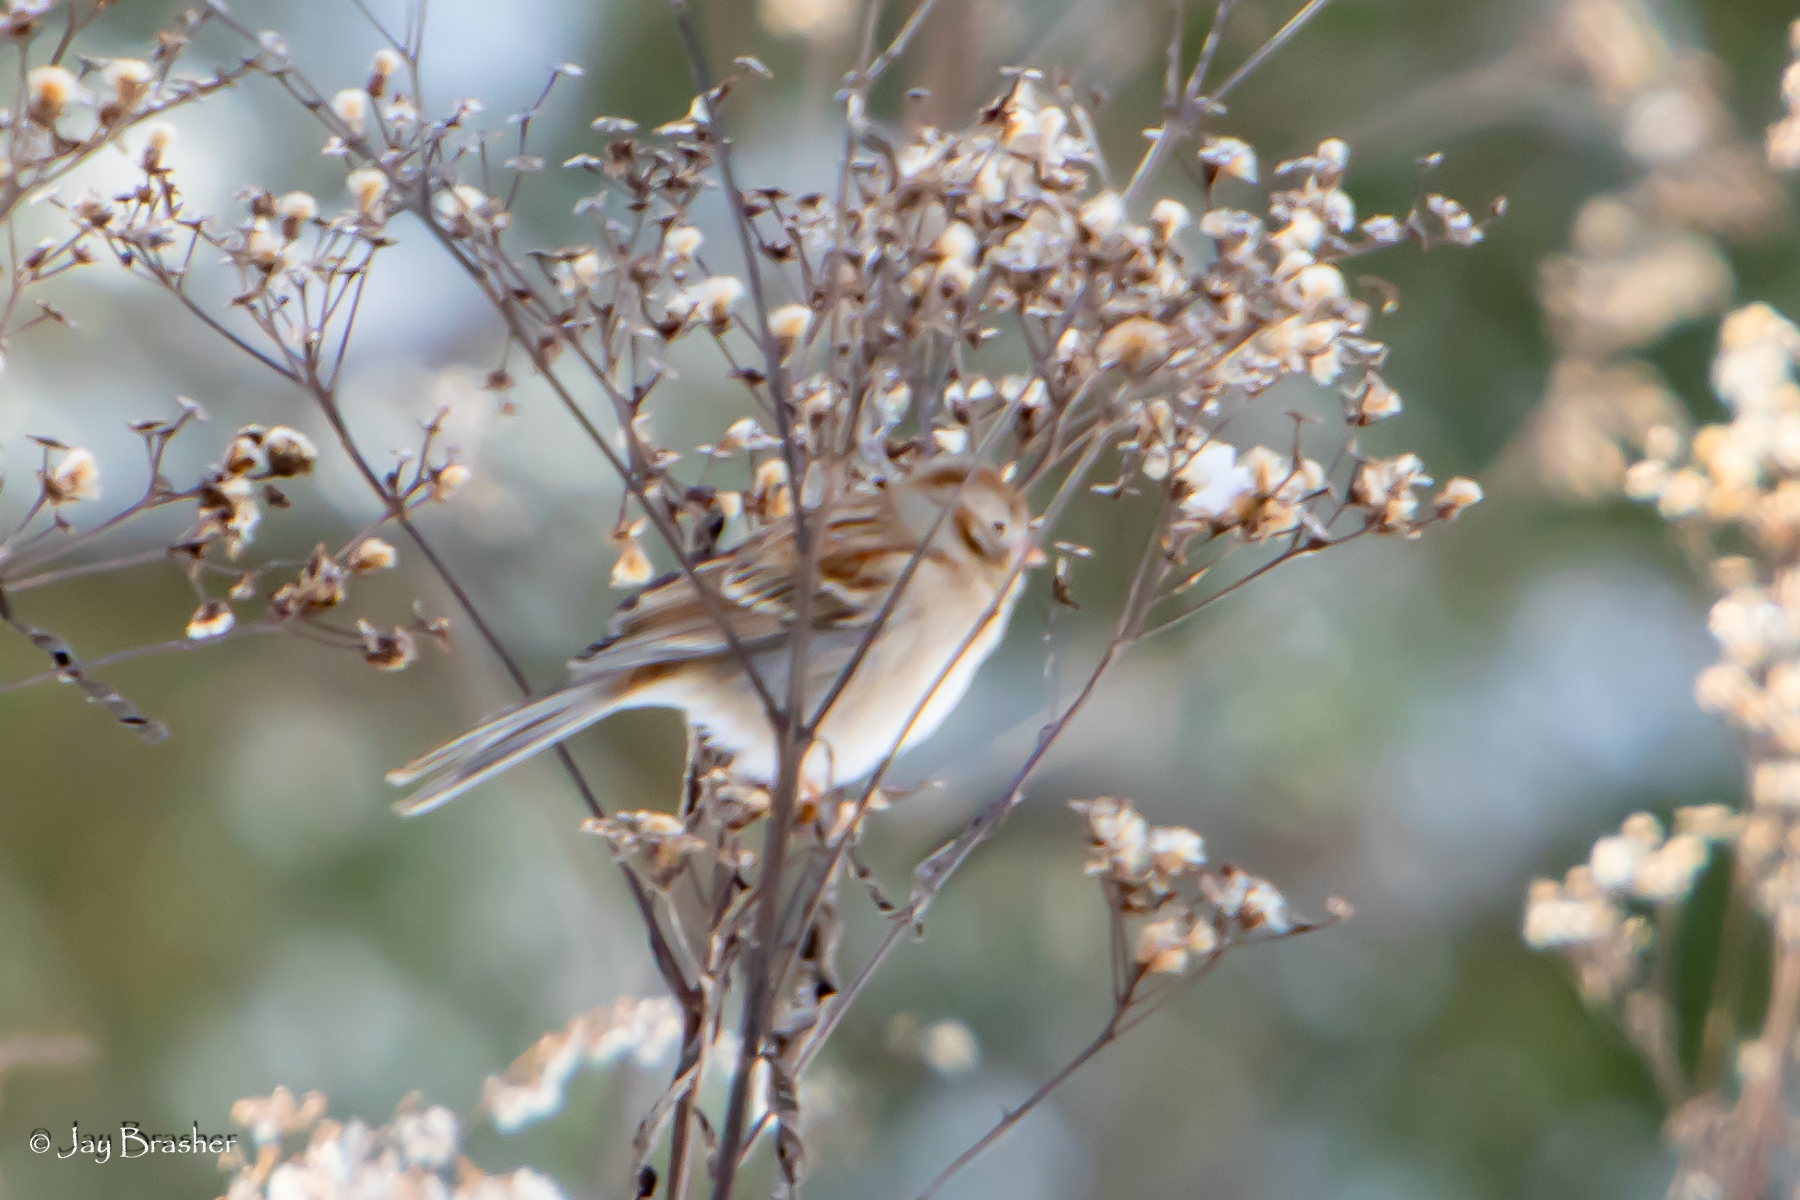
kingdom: Animalia
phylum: Chordata
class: Aves
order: Passeriformes
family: Passerellidae
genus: Spizella
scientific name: Spizella pusilla
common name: Field sparrow
